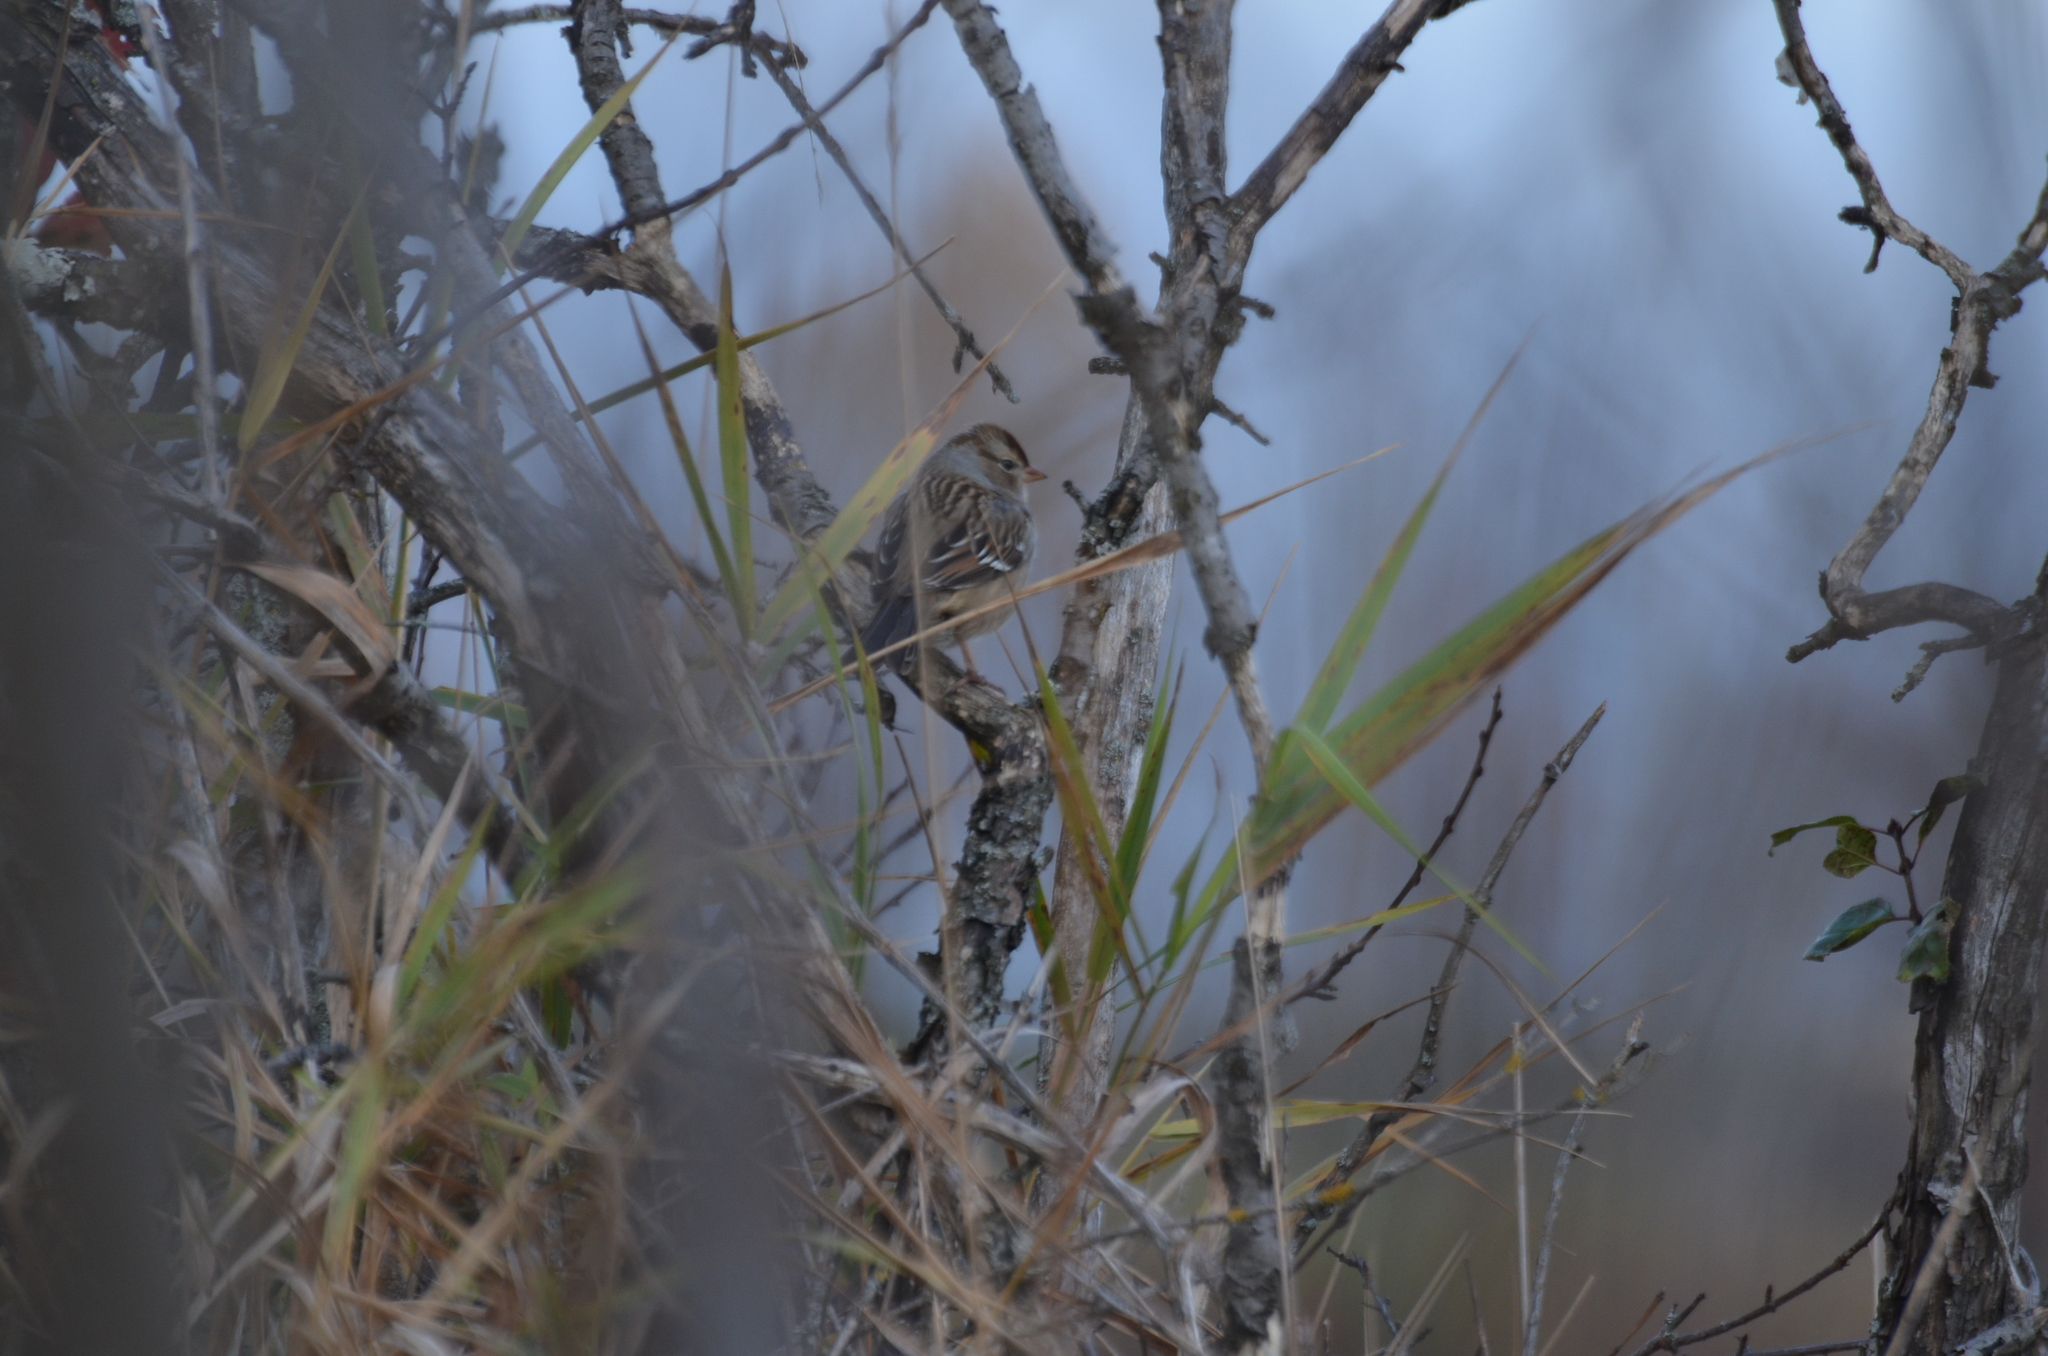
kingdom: Animalia
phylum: Chordata
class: Aves
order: Passeriformes
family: Passerellidae
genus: Zonotrichia
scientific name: Zonotrichia leucophrys
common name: White-crowned sparrow
